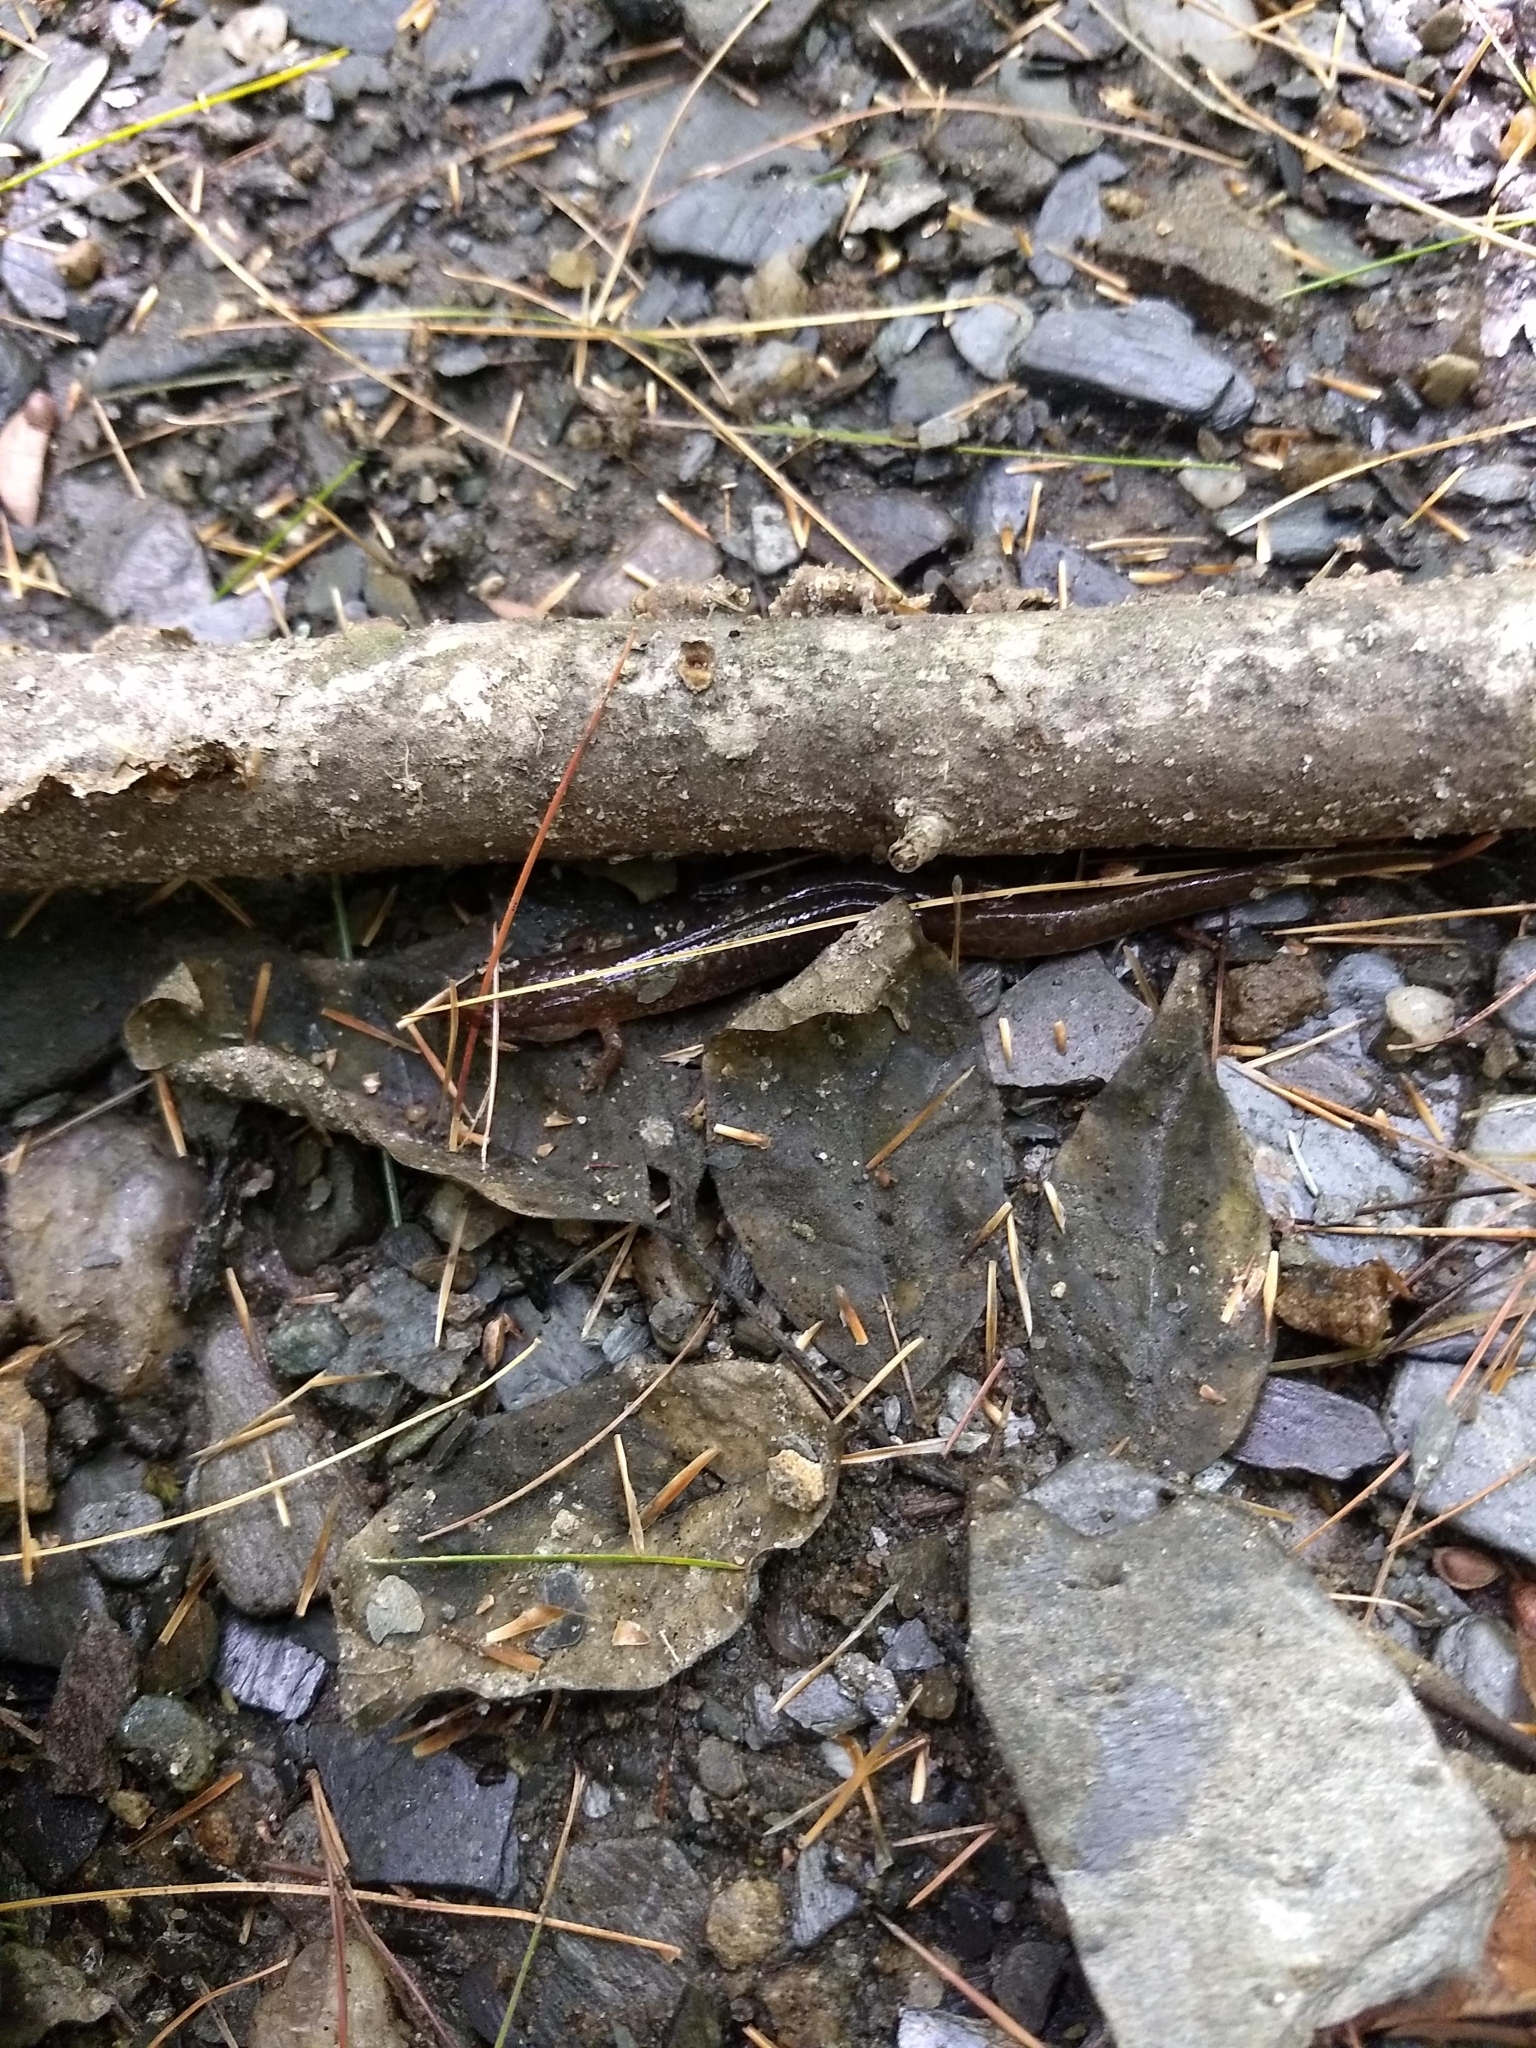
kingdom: Animalia
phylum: Chordata
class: Amphibia
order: Caudata
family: Plethodontidae
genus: Desmognathus
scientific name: Desmognathus fuscus
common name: Northern dusky salamander
